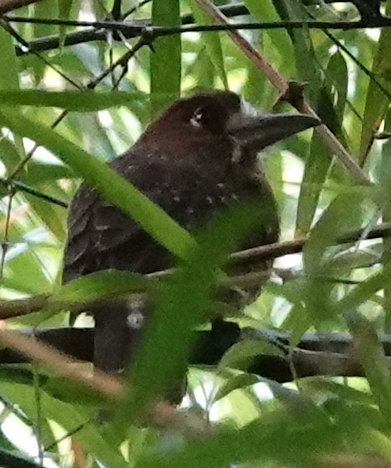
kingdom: Animalia
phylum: Chordata
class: Aves
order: Piciformes
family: Bucconidae
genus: Malacoptila
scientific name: Malacoptila mystacalis
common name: Moustached puffbird
